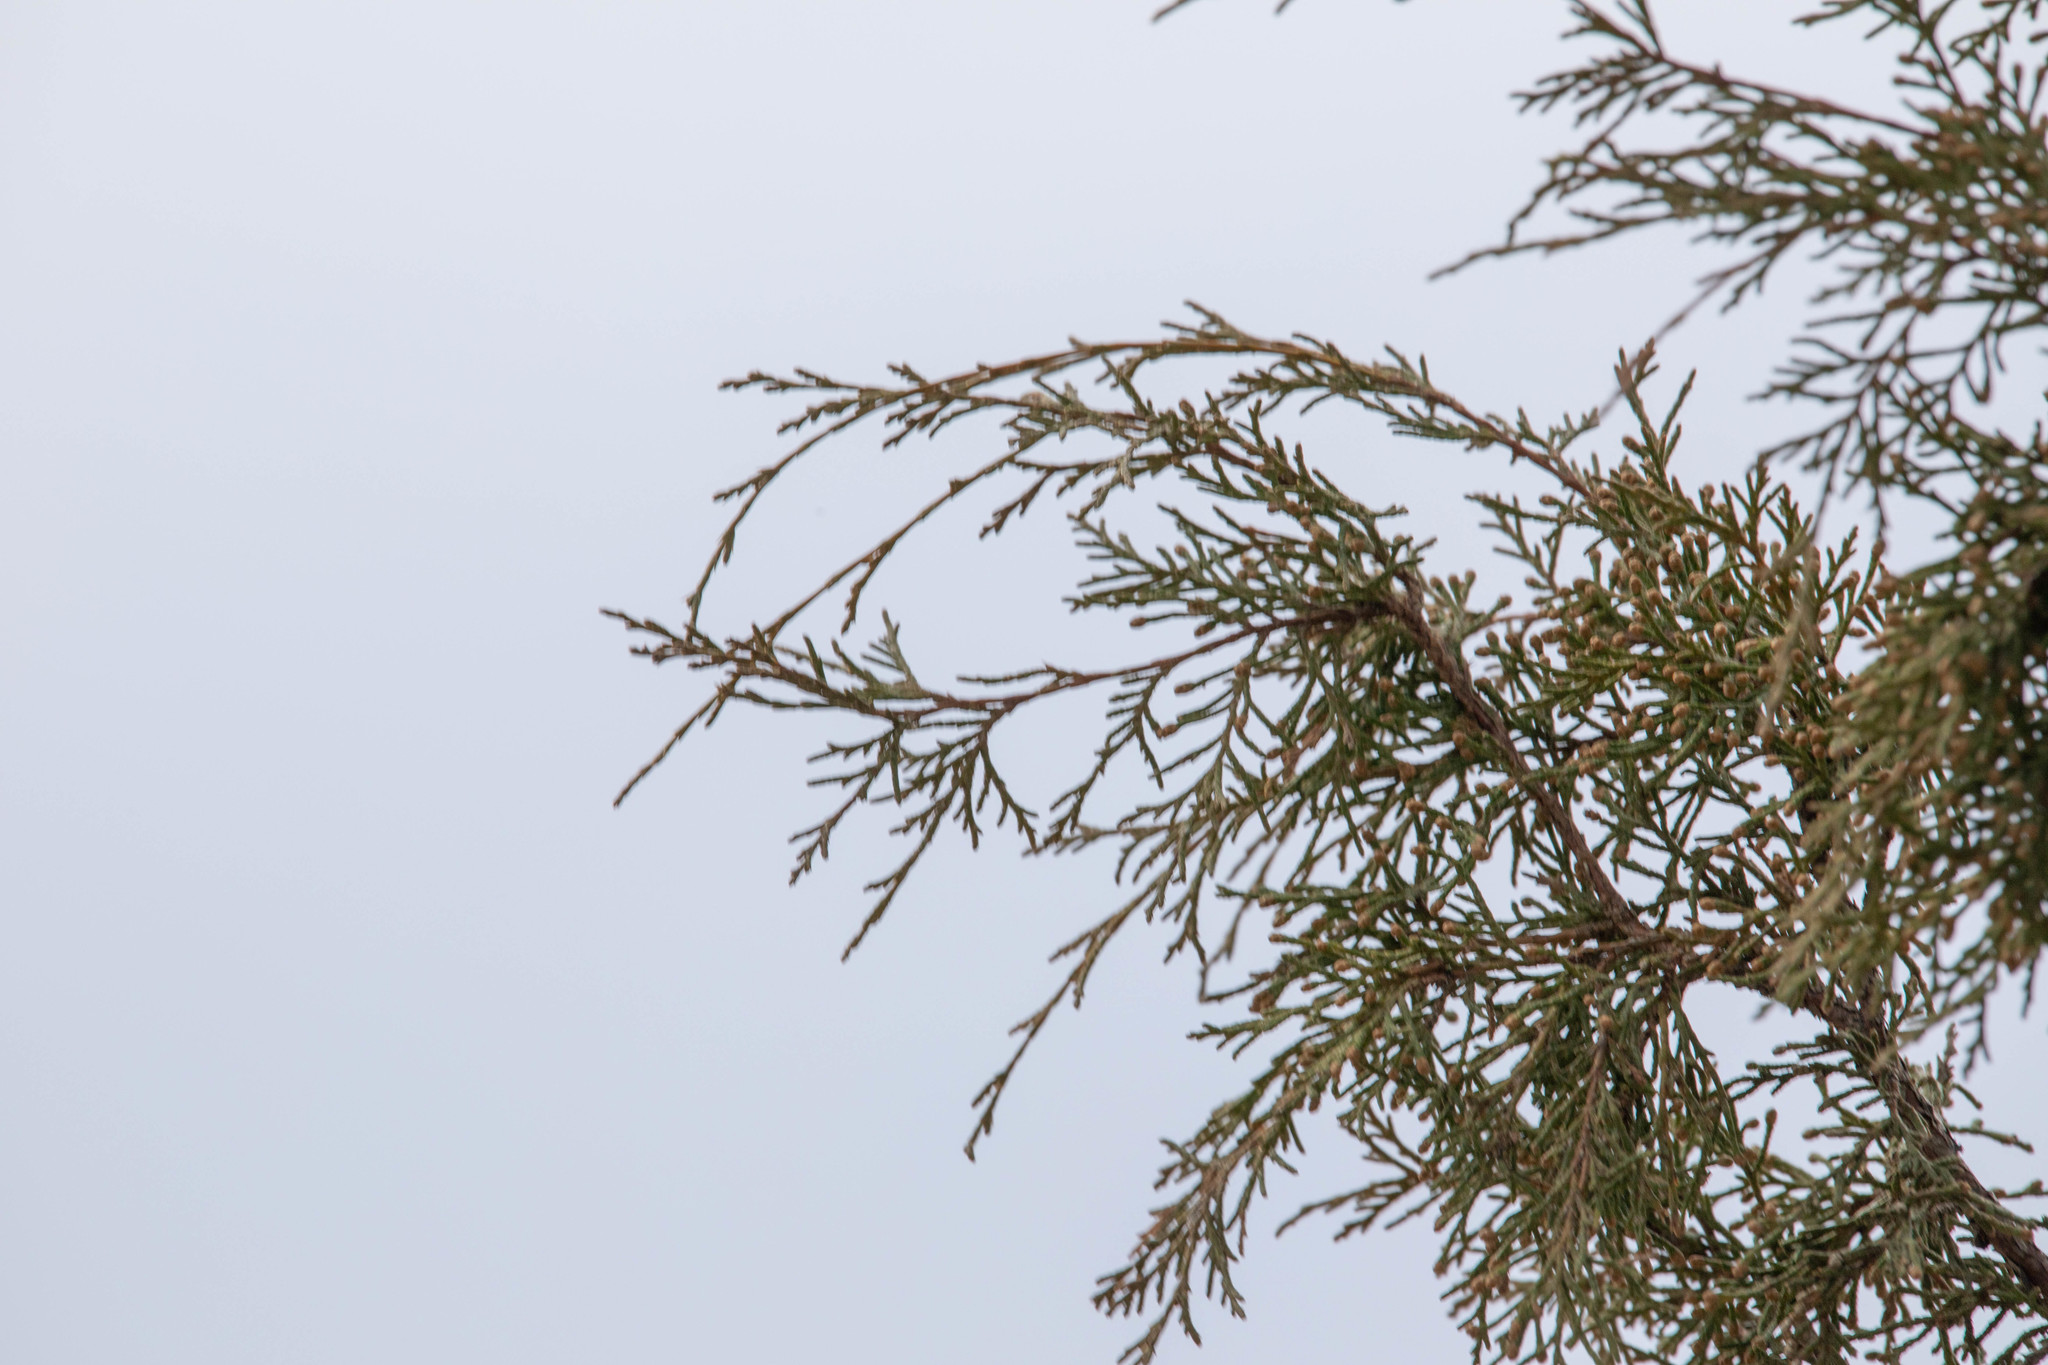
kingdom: Plantae
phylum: Tracheophyta
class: Pinopsida
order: Pinales
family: Cupressaceae
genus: Juniperus
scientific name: Juniperus scopulorum
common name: Rocky mountain juniper
